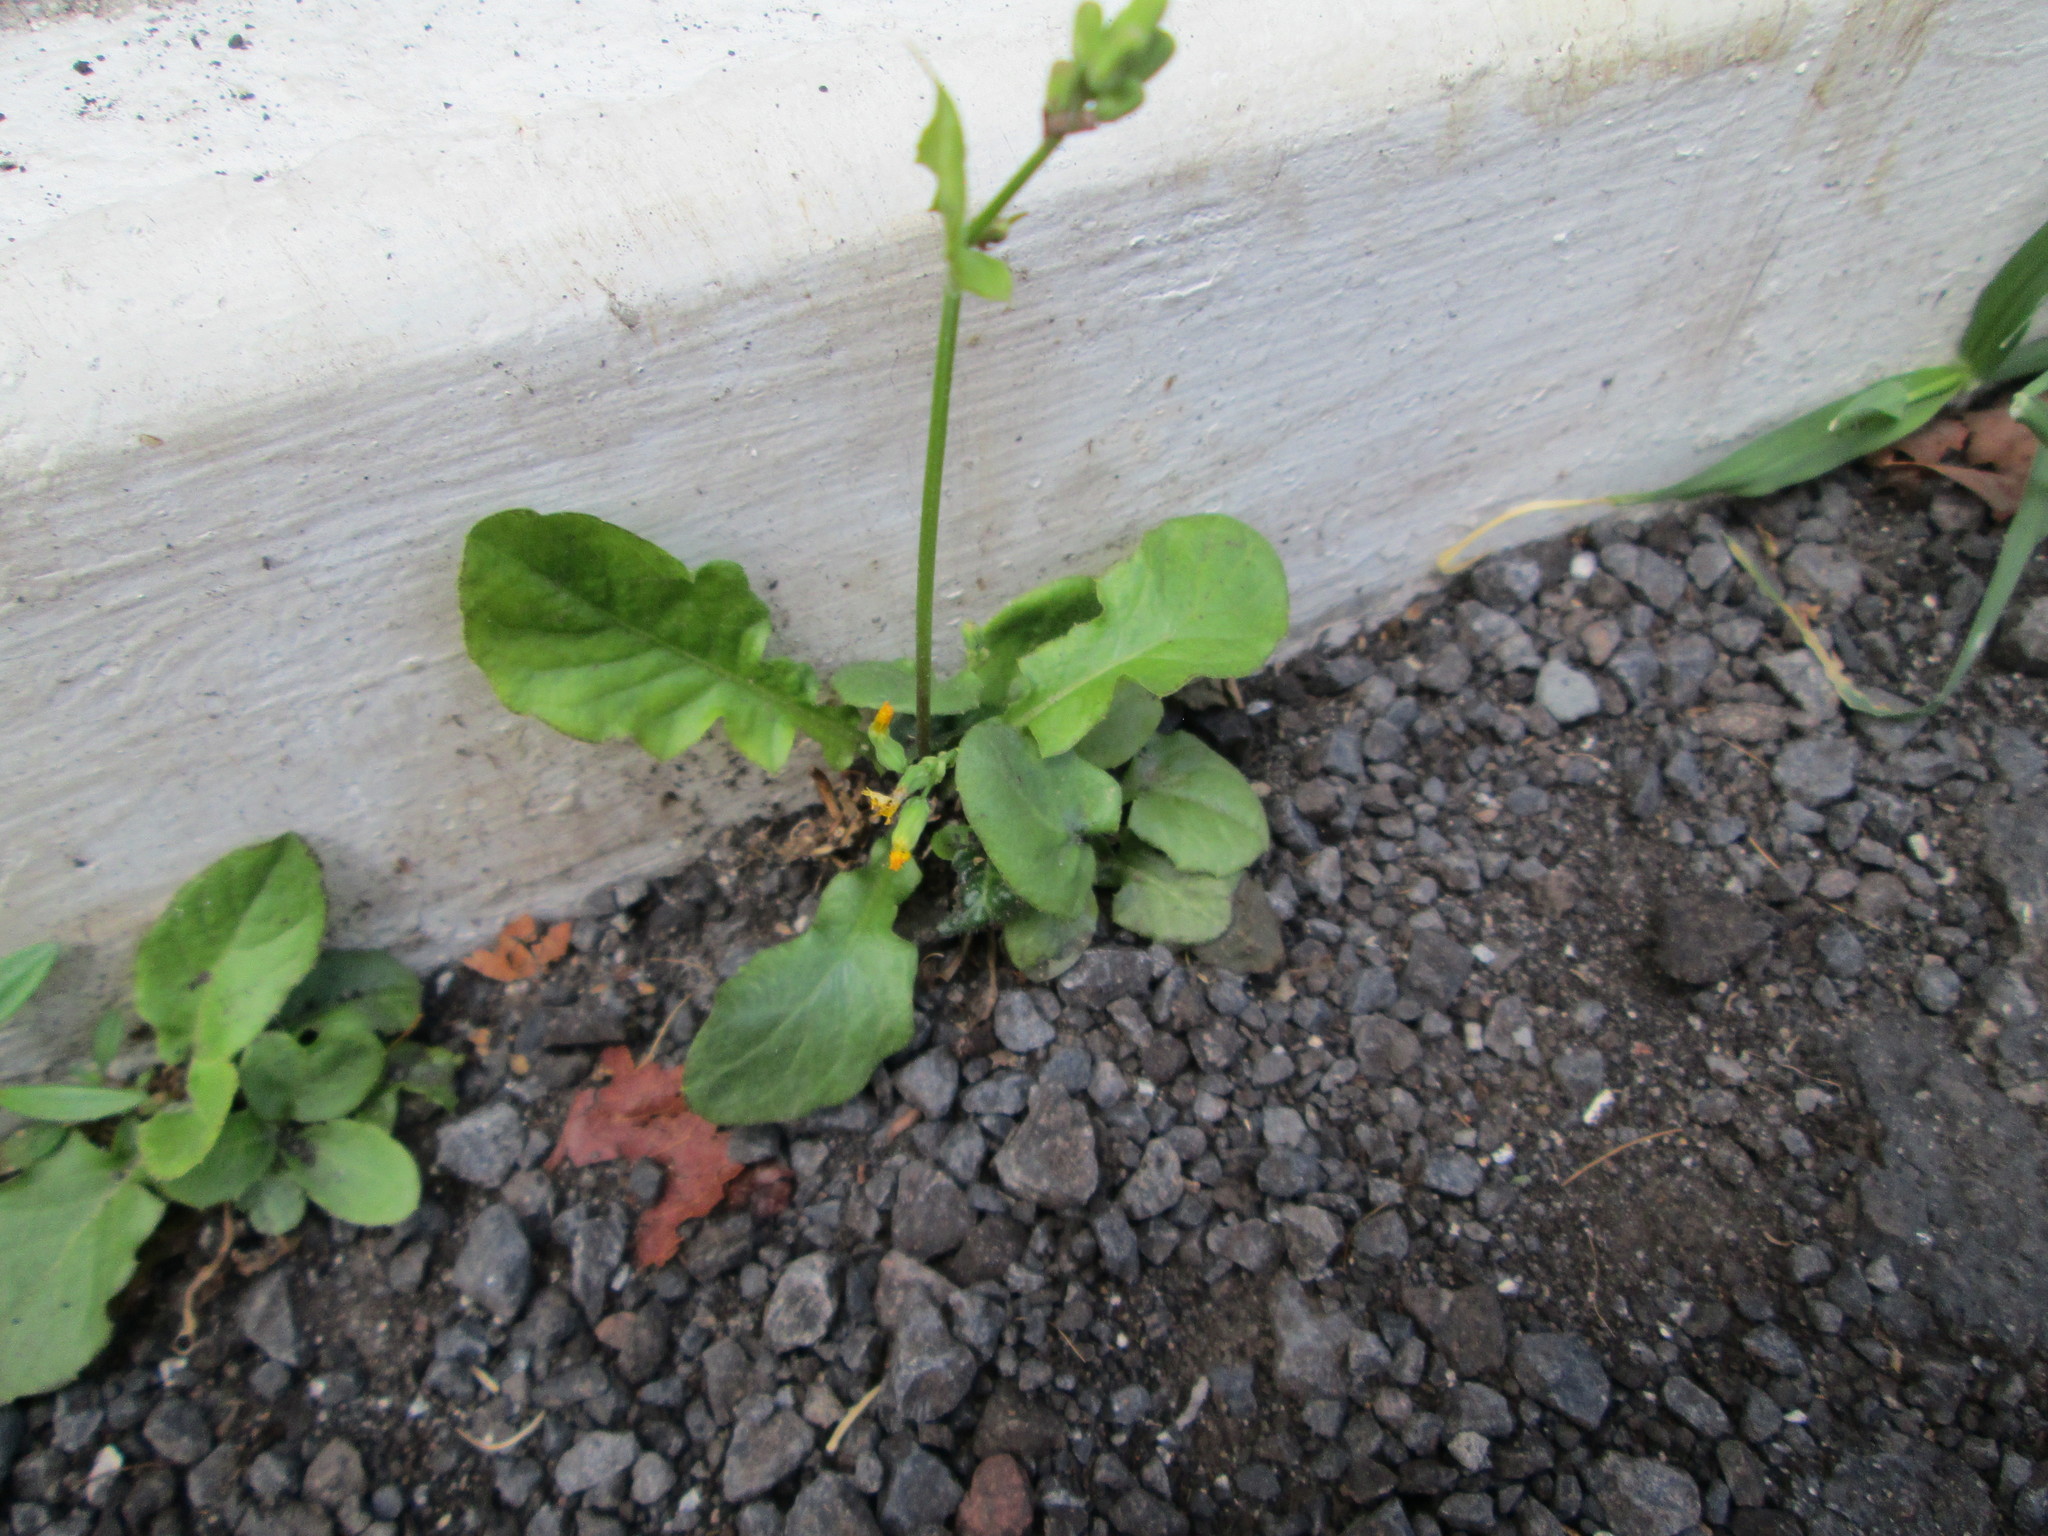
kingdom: Plantae
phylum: Tracheophyta
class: Magnoliopsida
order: Asterales
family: Asteraceae
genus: Youngia
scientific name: Youngia japonica
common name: Oriental false hawksbeard
